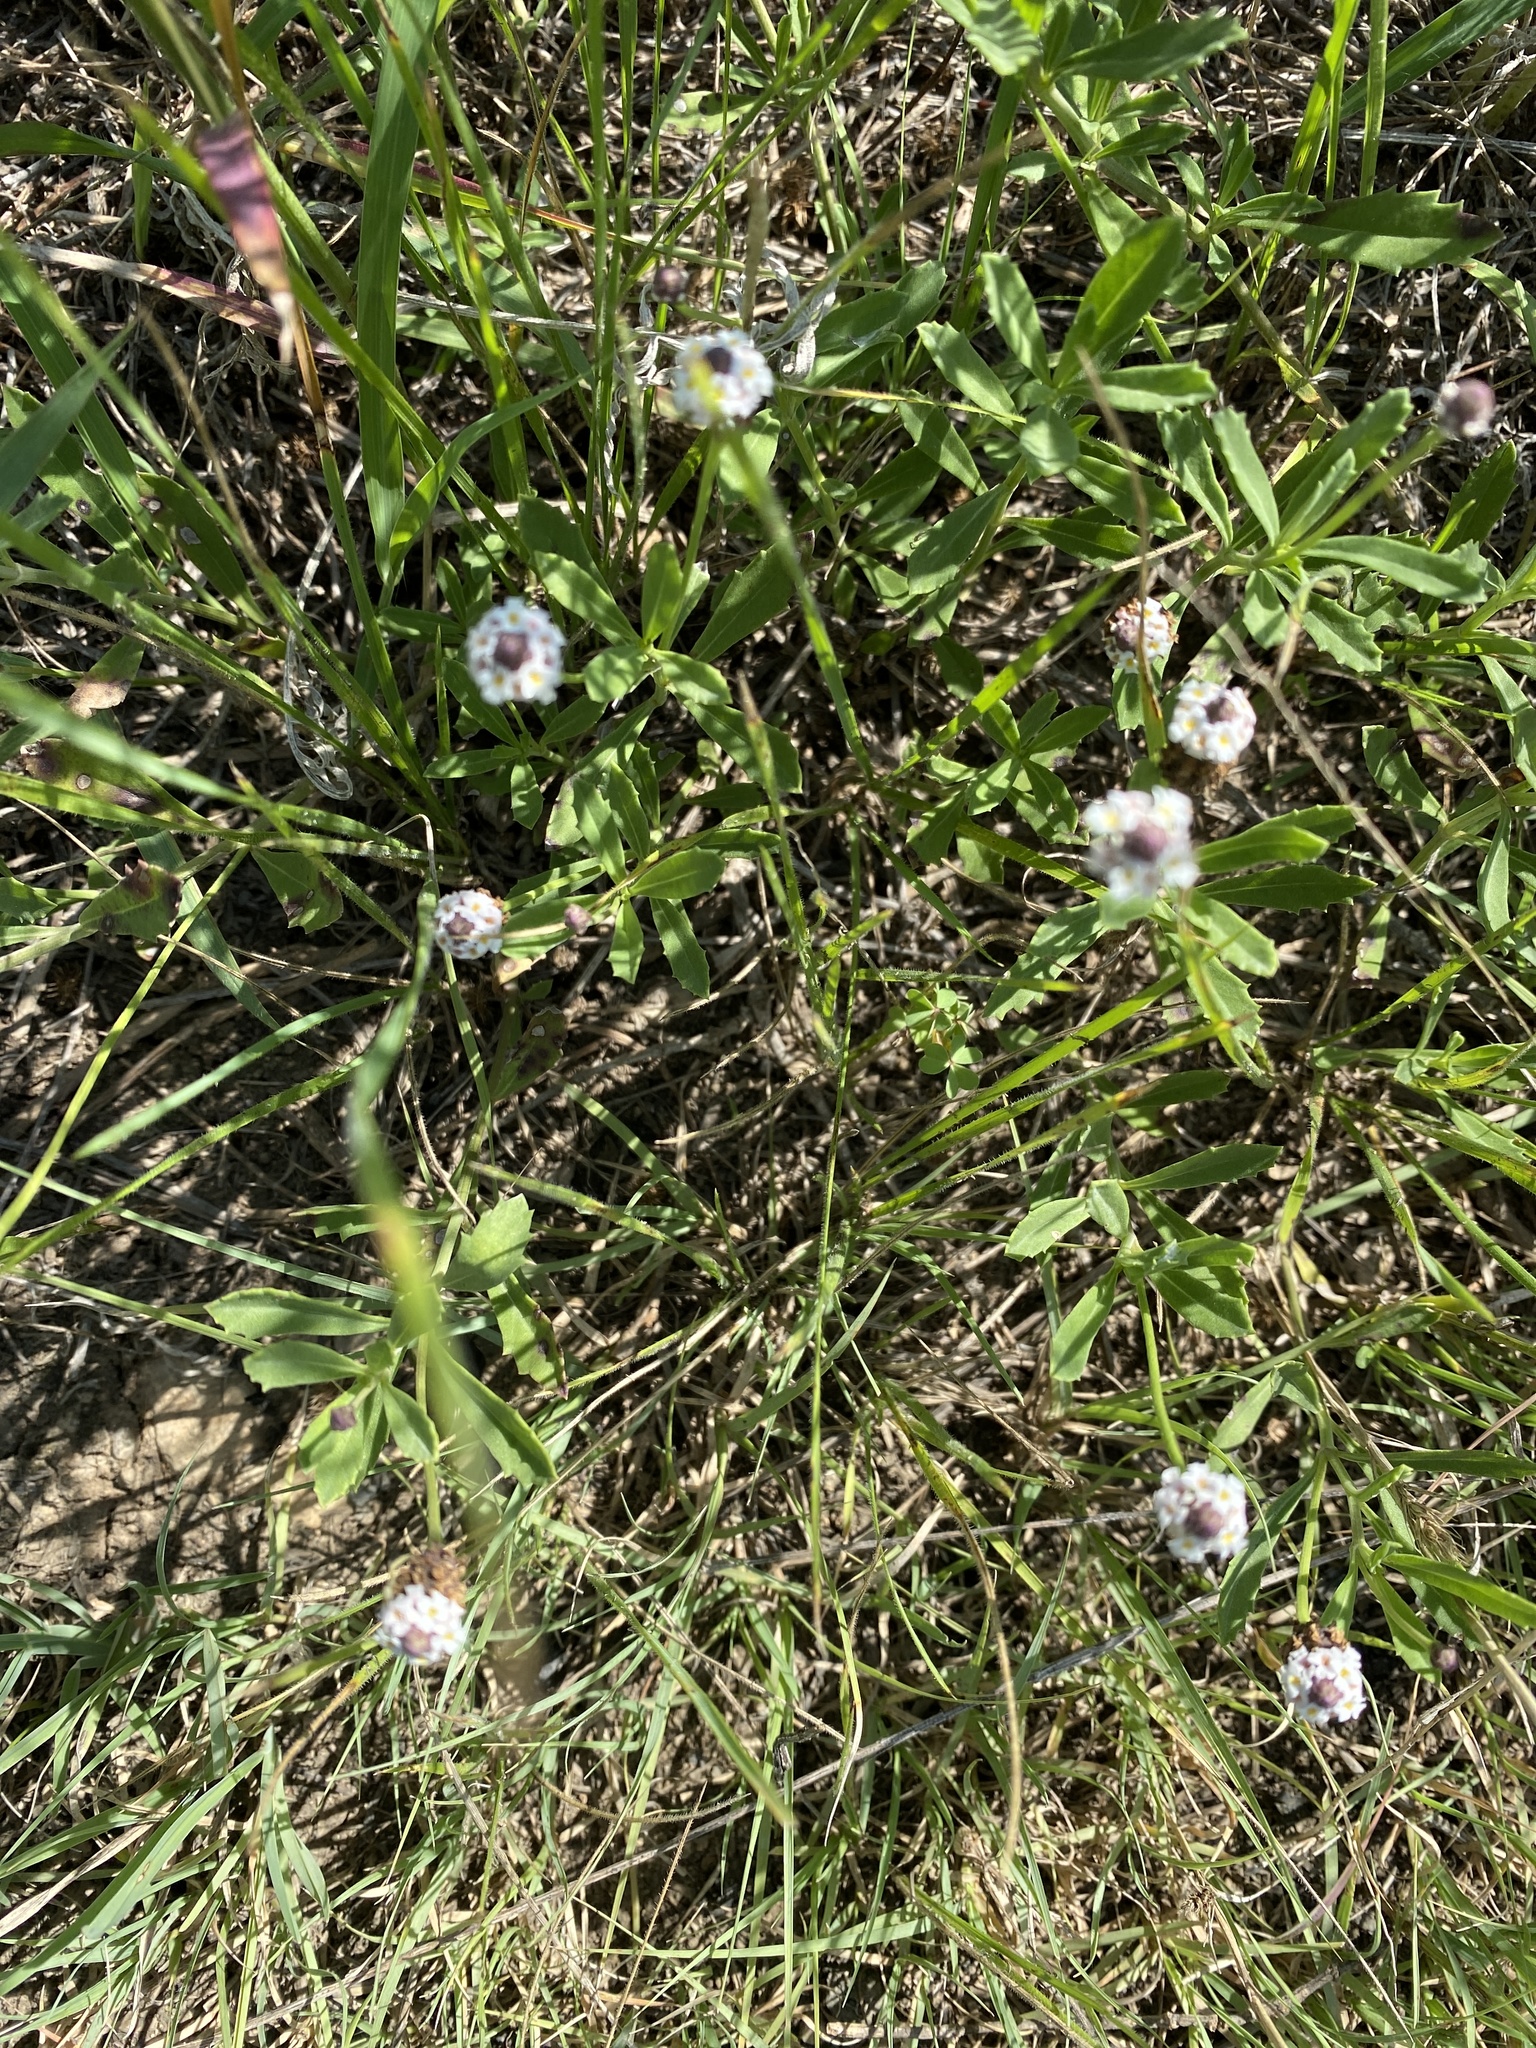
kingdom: Plantae
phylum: Tracheophyta
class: Magnoliopsida
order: Lamiales
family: Verbenaceae
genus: Phyla
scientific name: Phyla nodiflora
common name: Frogfruit
